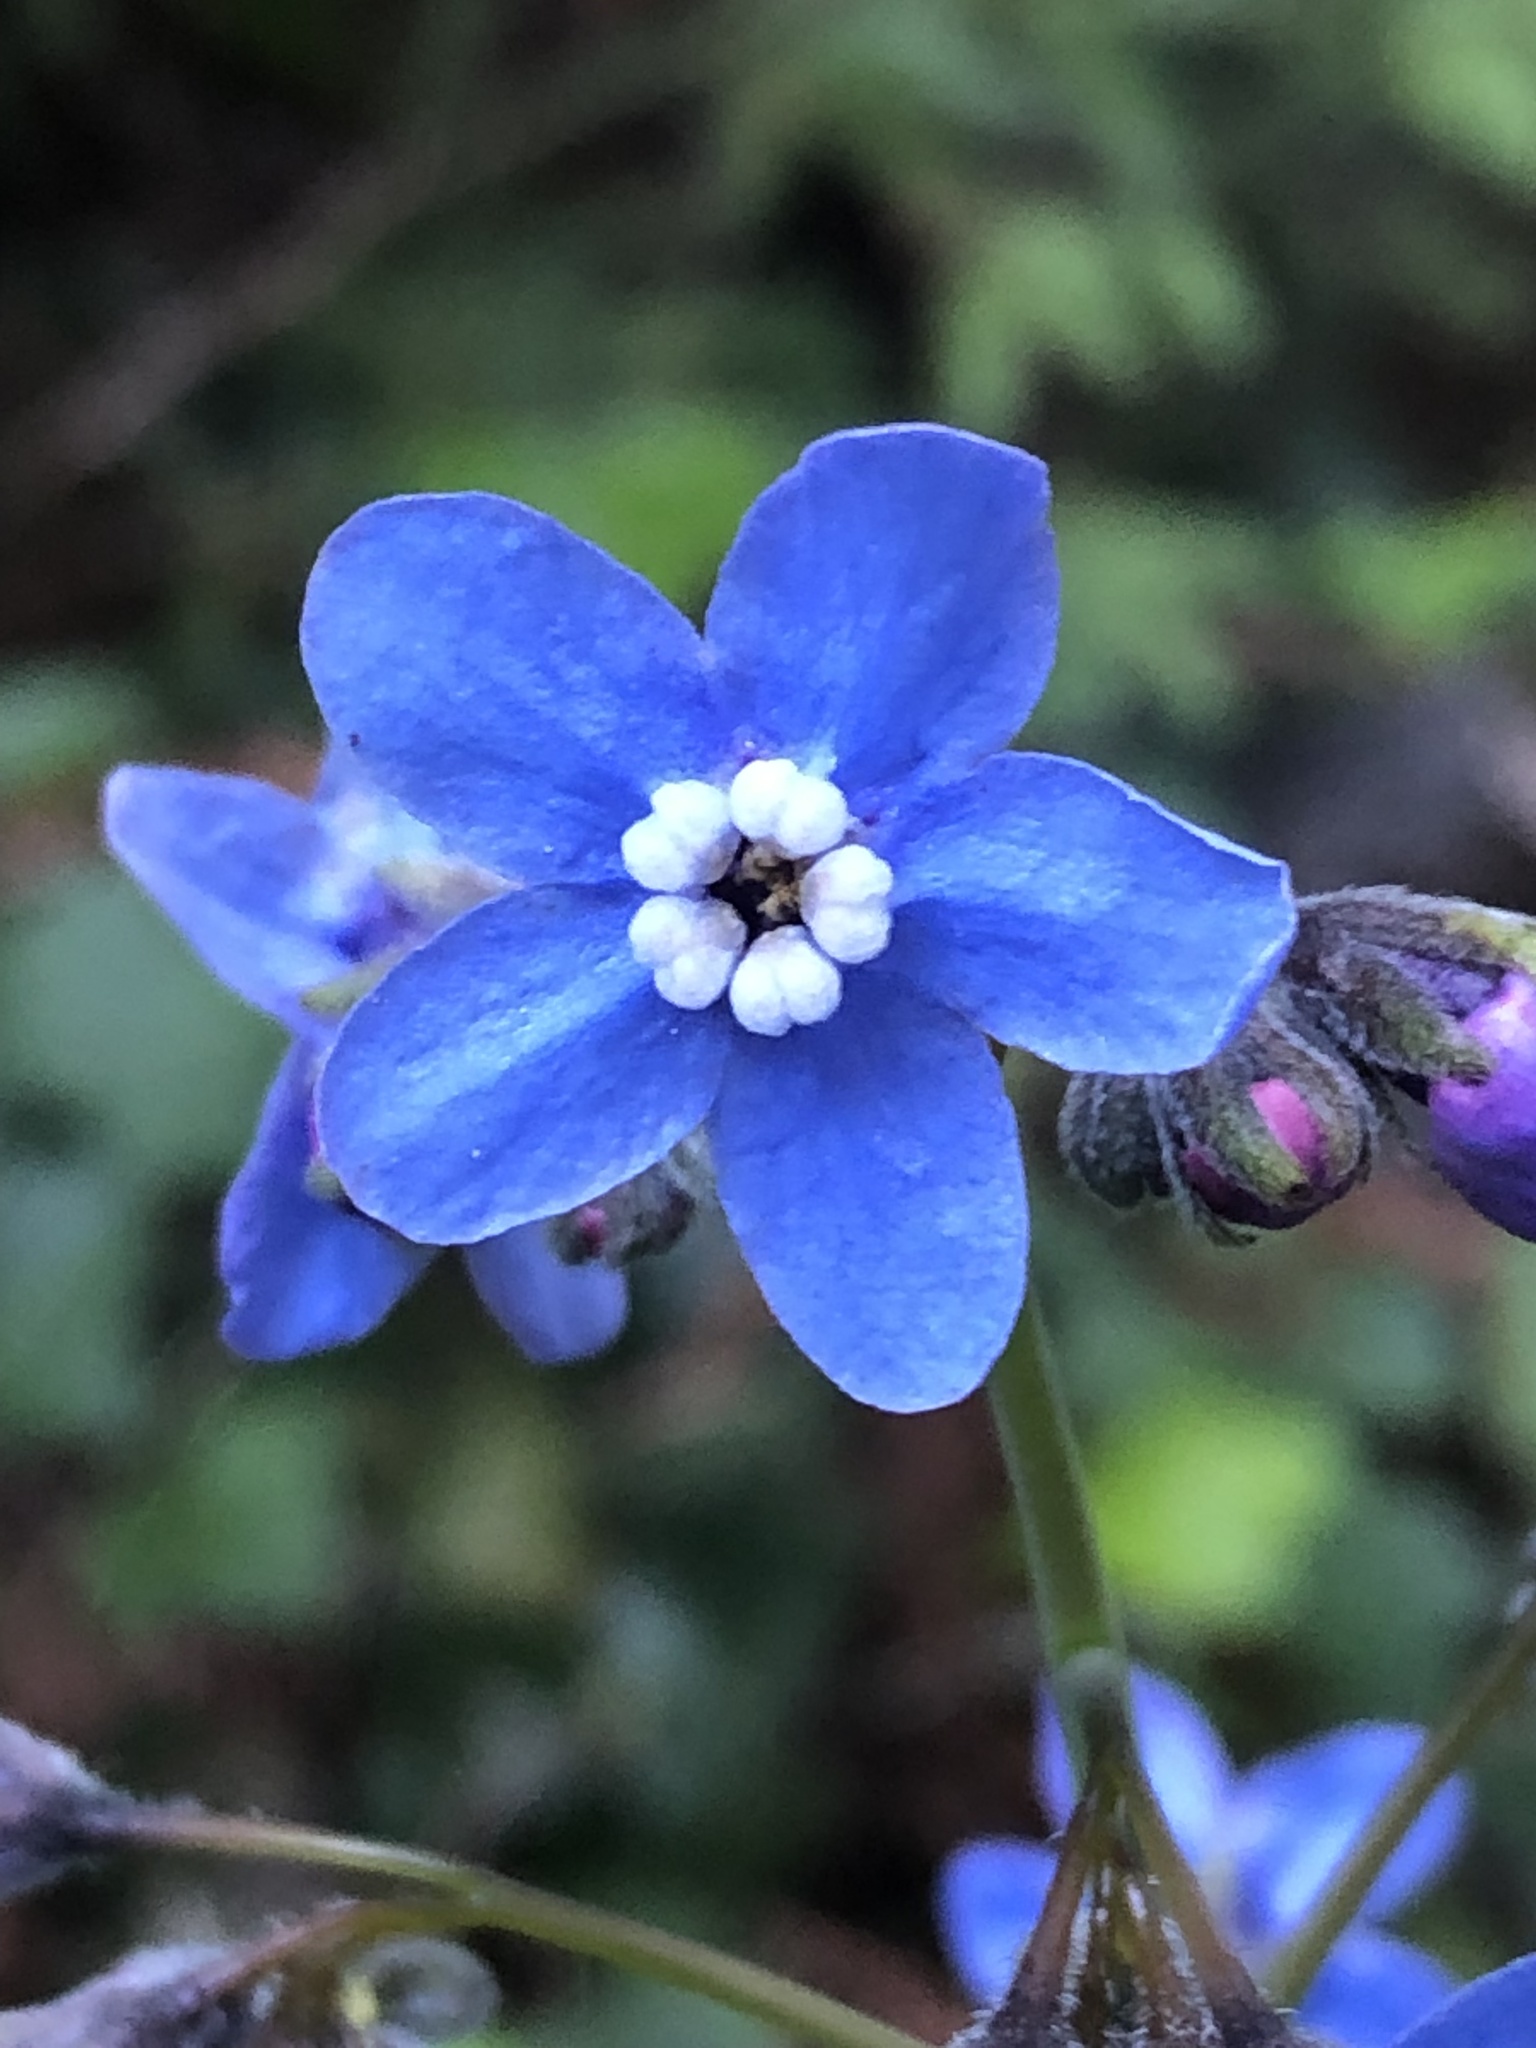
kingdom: Plantae
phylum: Tracheophyta
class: Magnoliopsida
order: Boraginales
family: Boraginaceae
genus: Adelinia
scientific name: Adelinia grande
